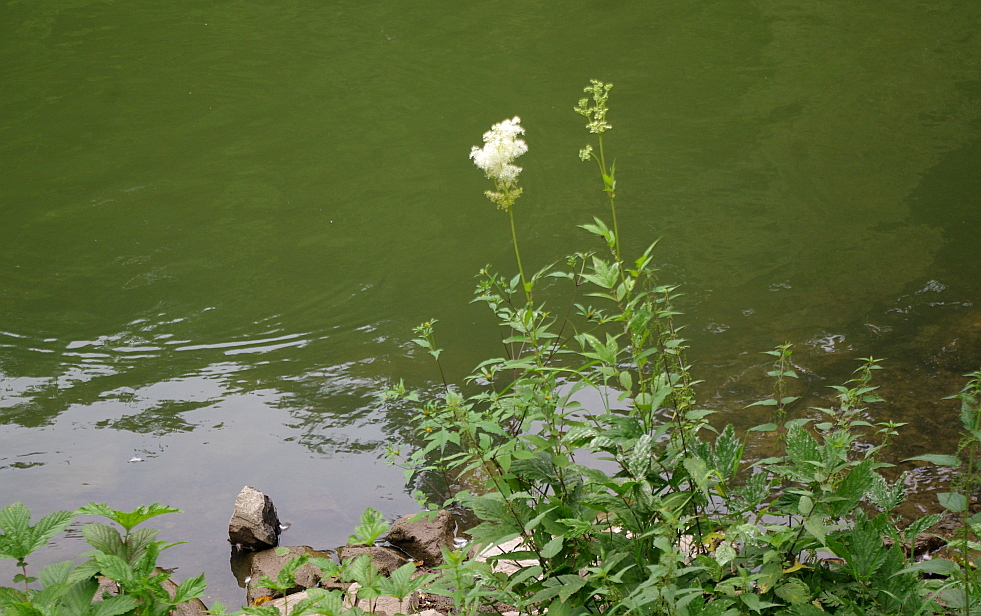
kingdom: Plantae
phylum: Tracheophyta
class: Magnoliopsida
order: Rosales
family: Rosaceae
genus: Filipendula
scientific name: Filipendula ulmaria
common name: Meadowsweet
